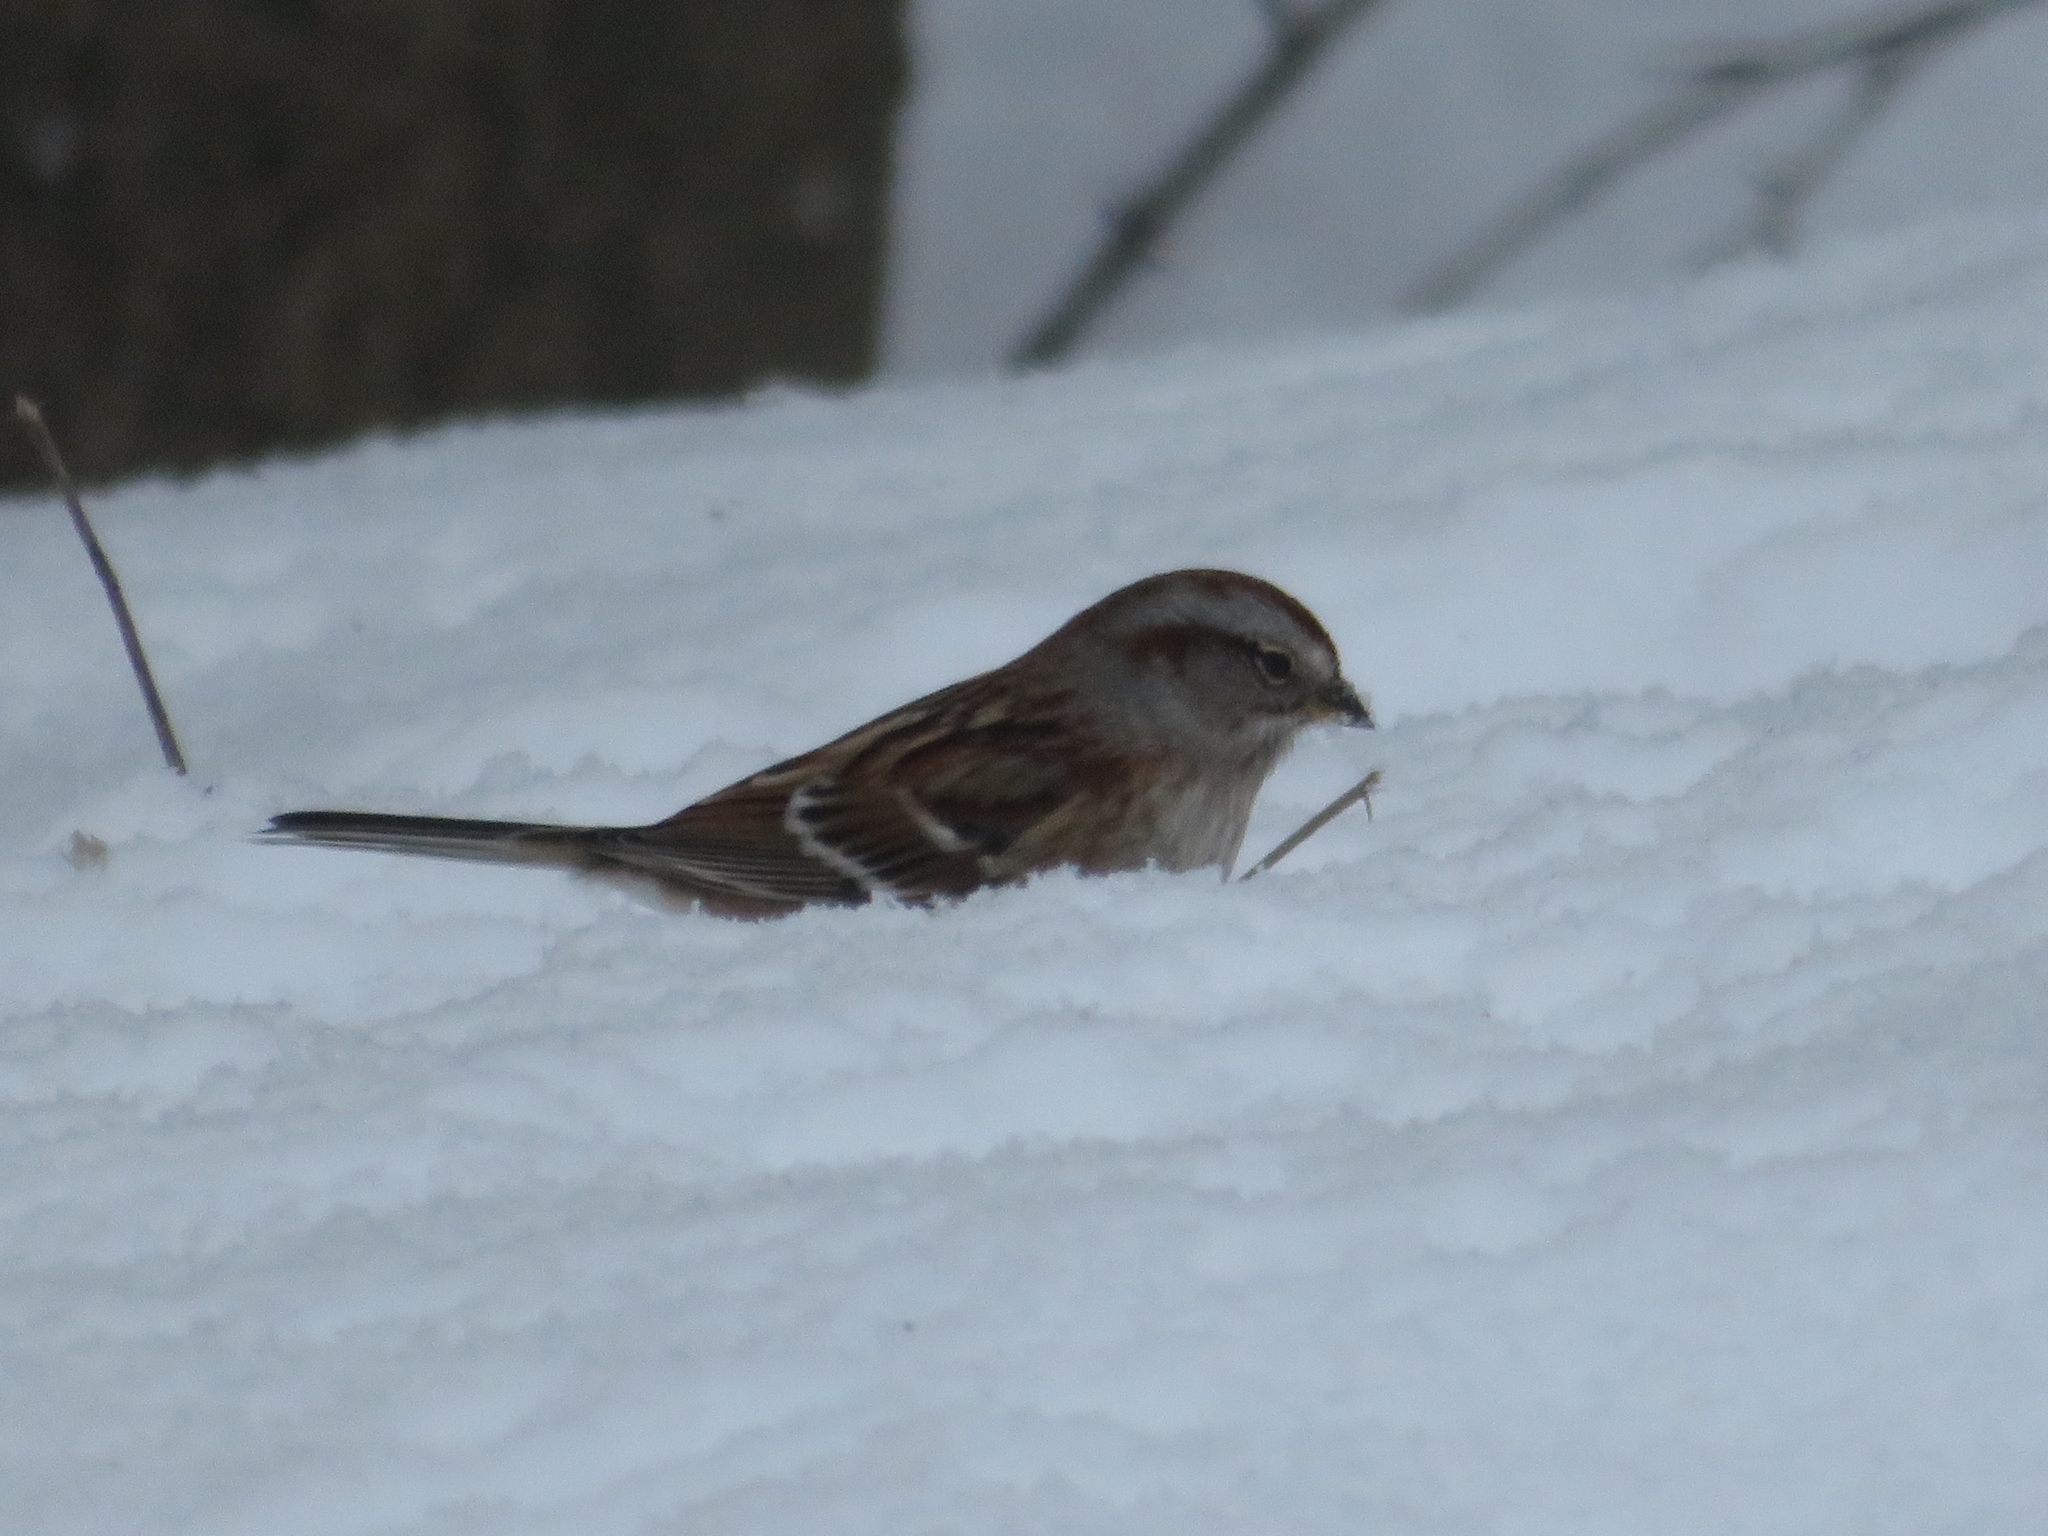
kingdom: Animalia
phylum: Chordata
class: Aves
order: Passeriformes
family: Passerellidae
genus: Spizelloides
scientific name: Spizelloides arborea
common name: American tree sparrow
